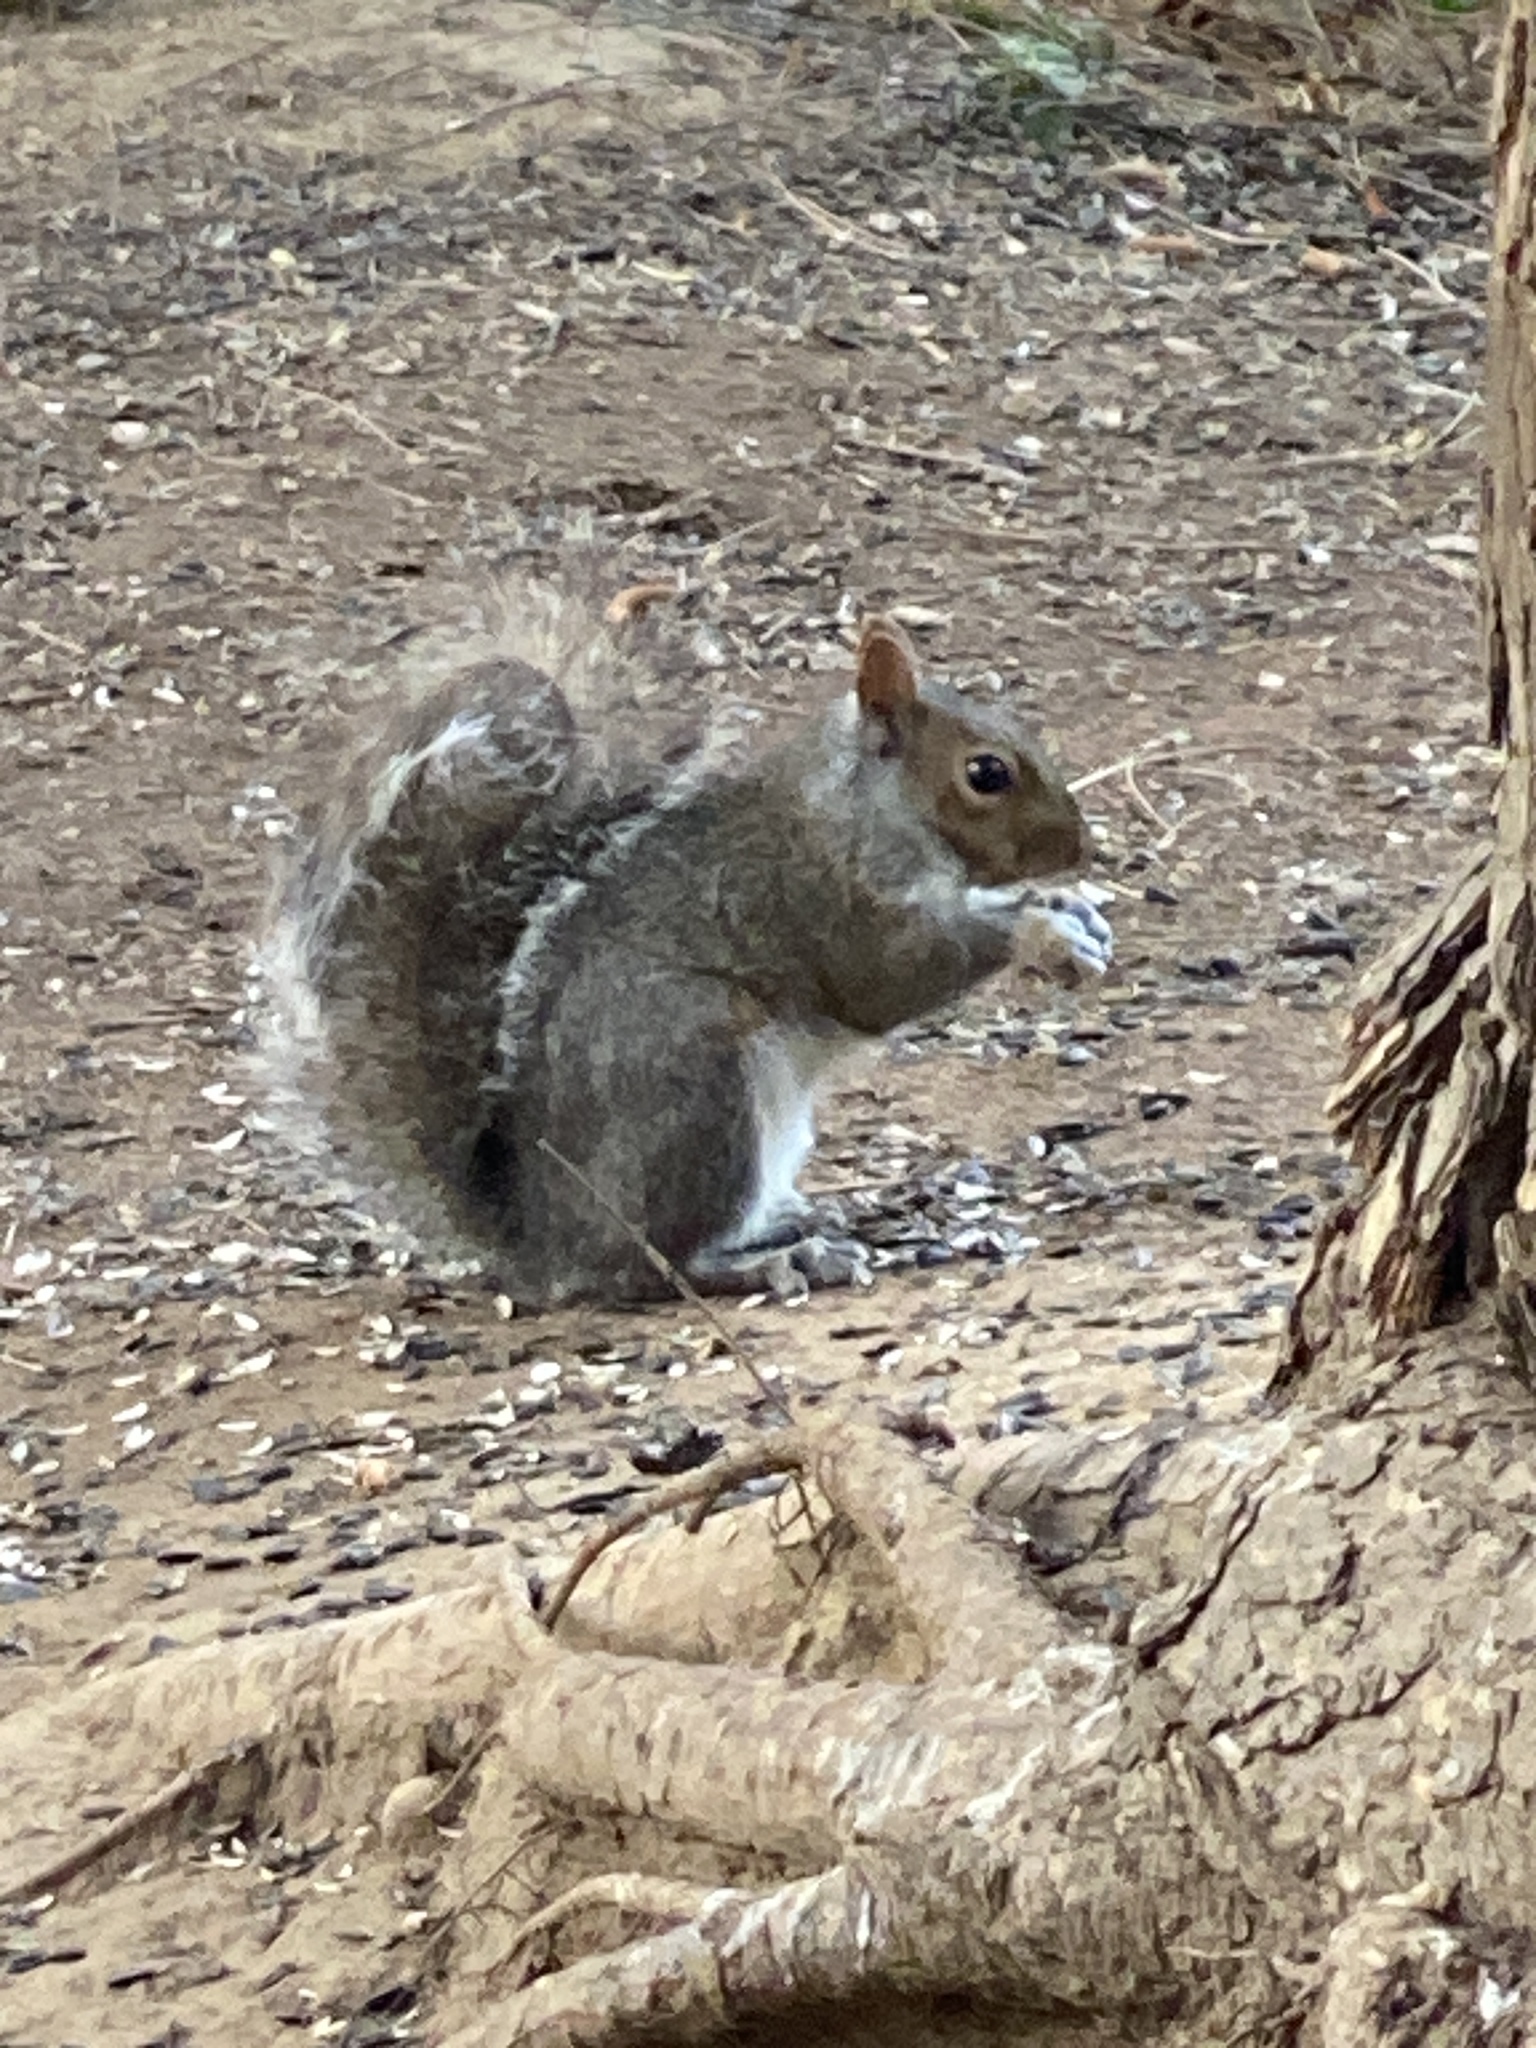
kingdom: Animalia
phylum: Chordata
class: Mammalia
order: Rodentia
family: Sciuridae
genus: Sciurus
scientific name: Sciurus carolinensis
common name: Eastern gray squirrel
